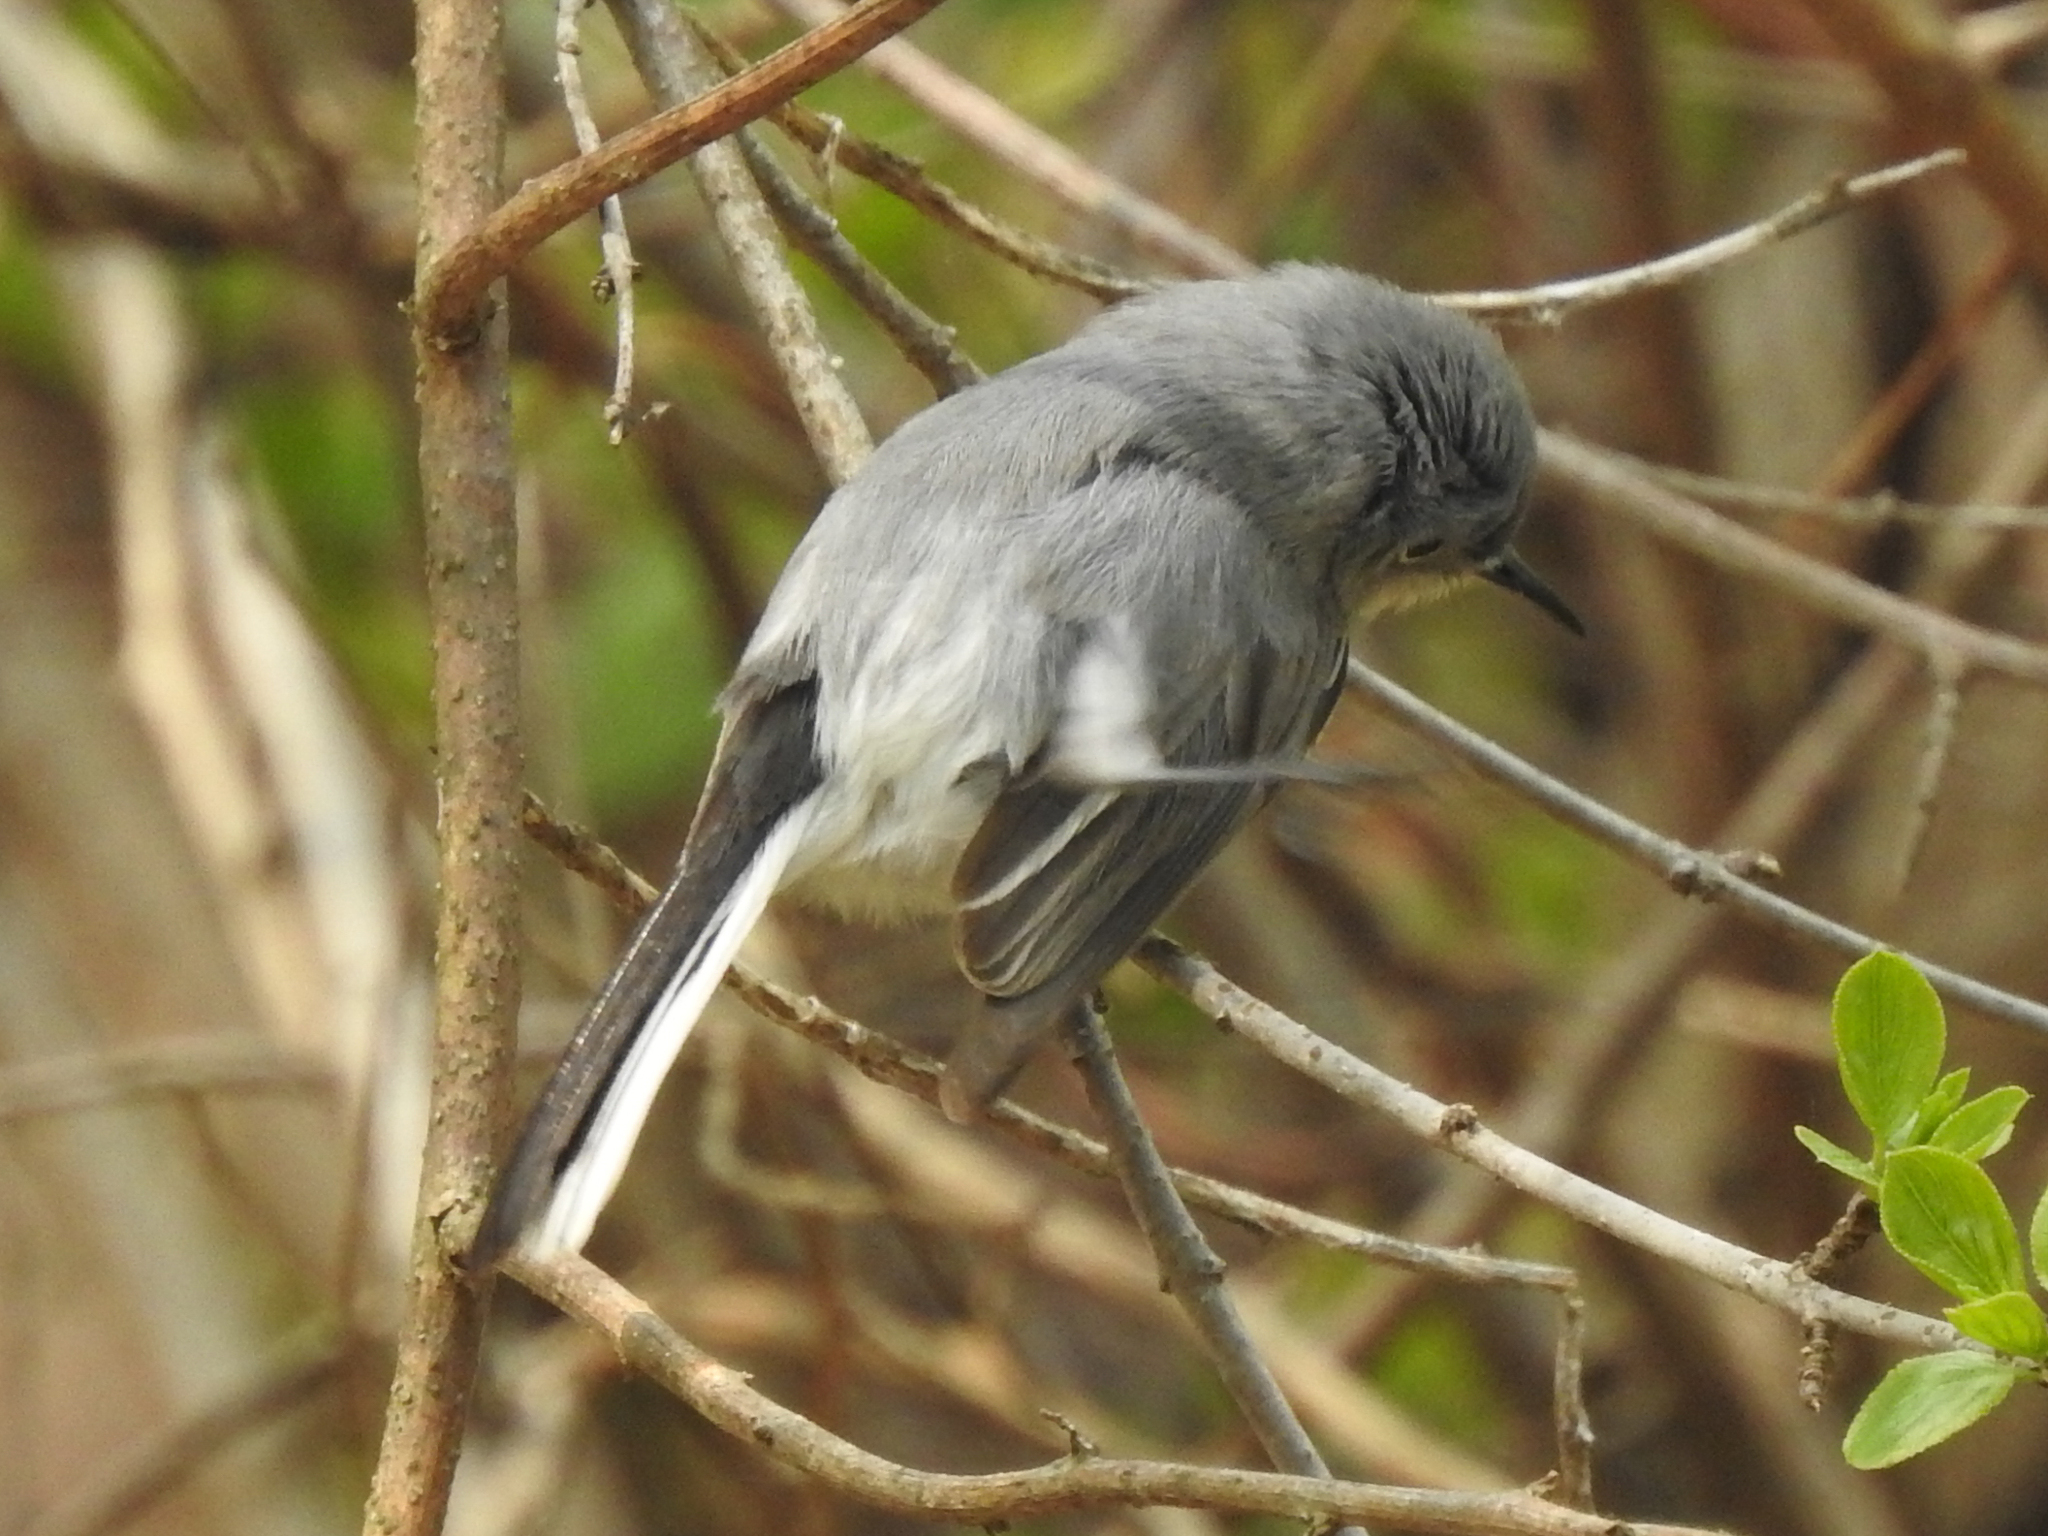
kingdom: Animalia
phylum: Chordata
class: Aves
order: Passeriformes
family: Polioptilidae
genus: Polioptila
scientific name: Polioptila caerulea
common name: Blue-gray gnatcatcher
